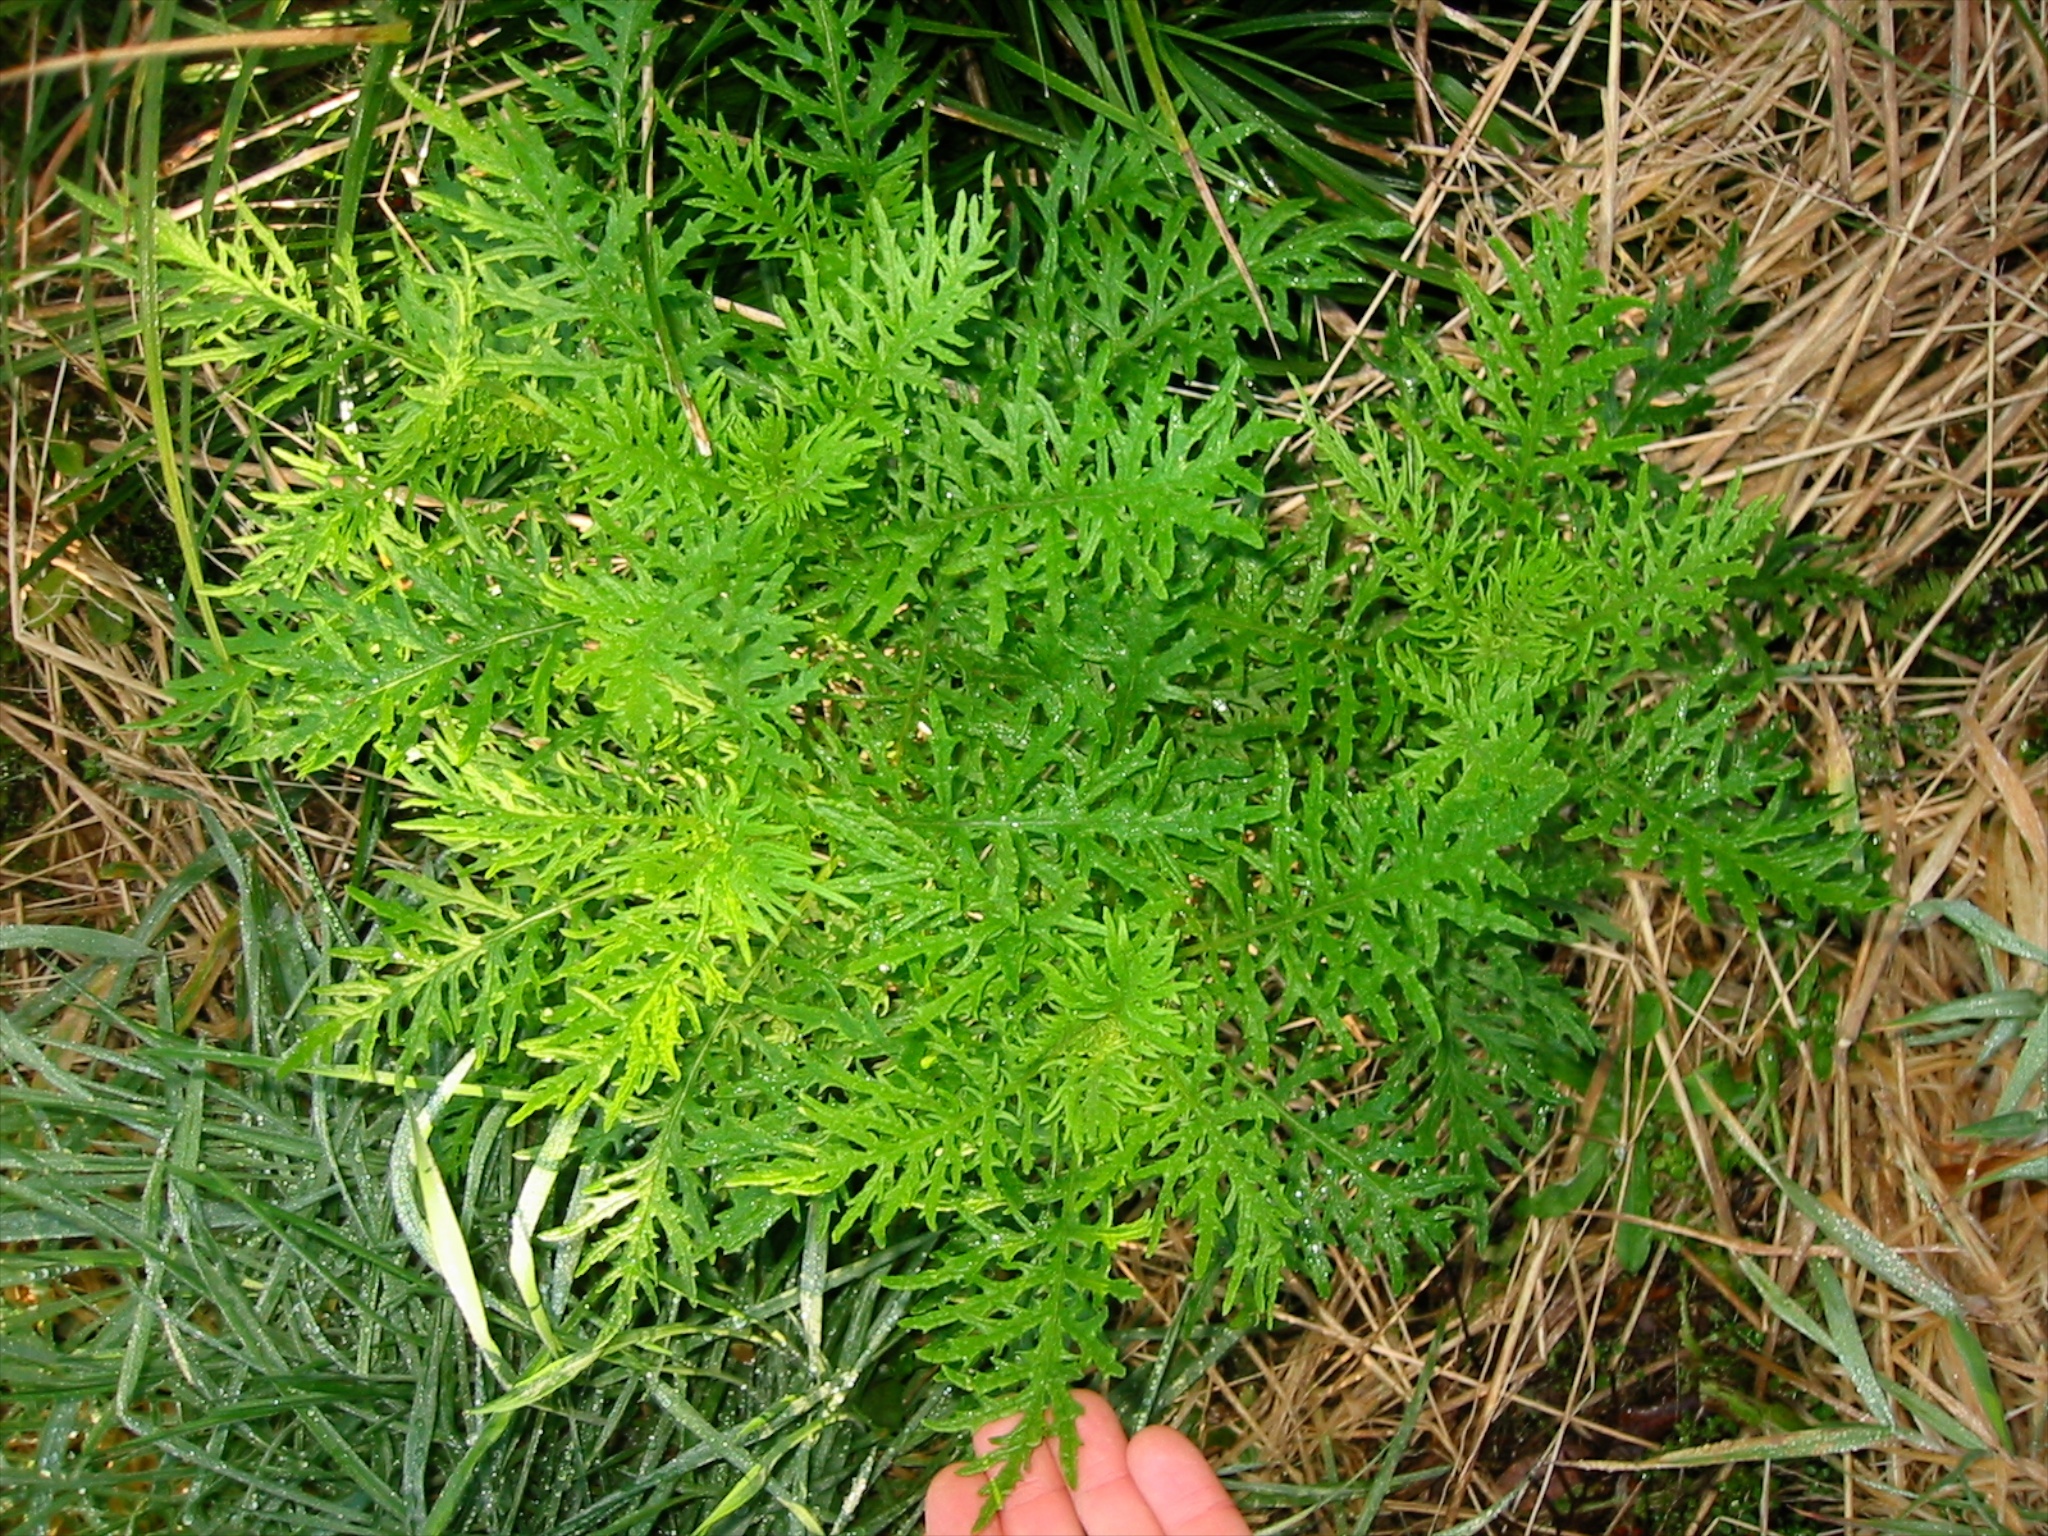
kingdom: Plantae
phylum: Tracheophyta
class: Magnoliopsida
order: Asterales
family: Asteraceae
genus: Senecio
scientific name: Senecio bipinnatisectus
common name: Australian fireweed
